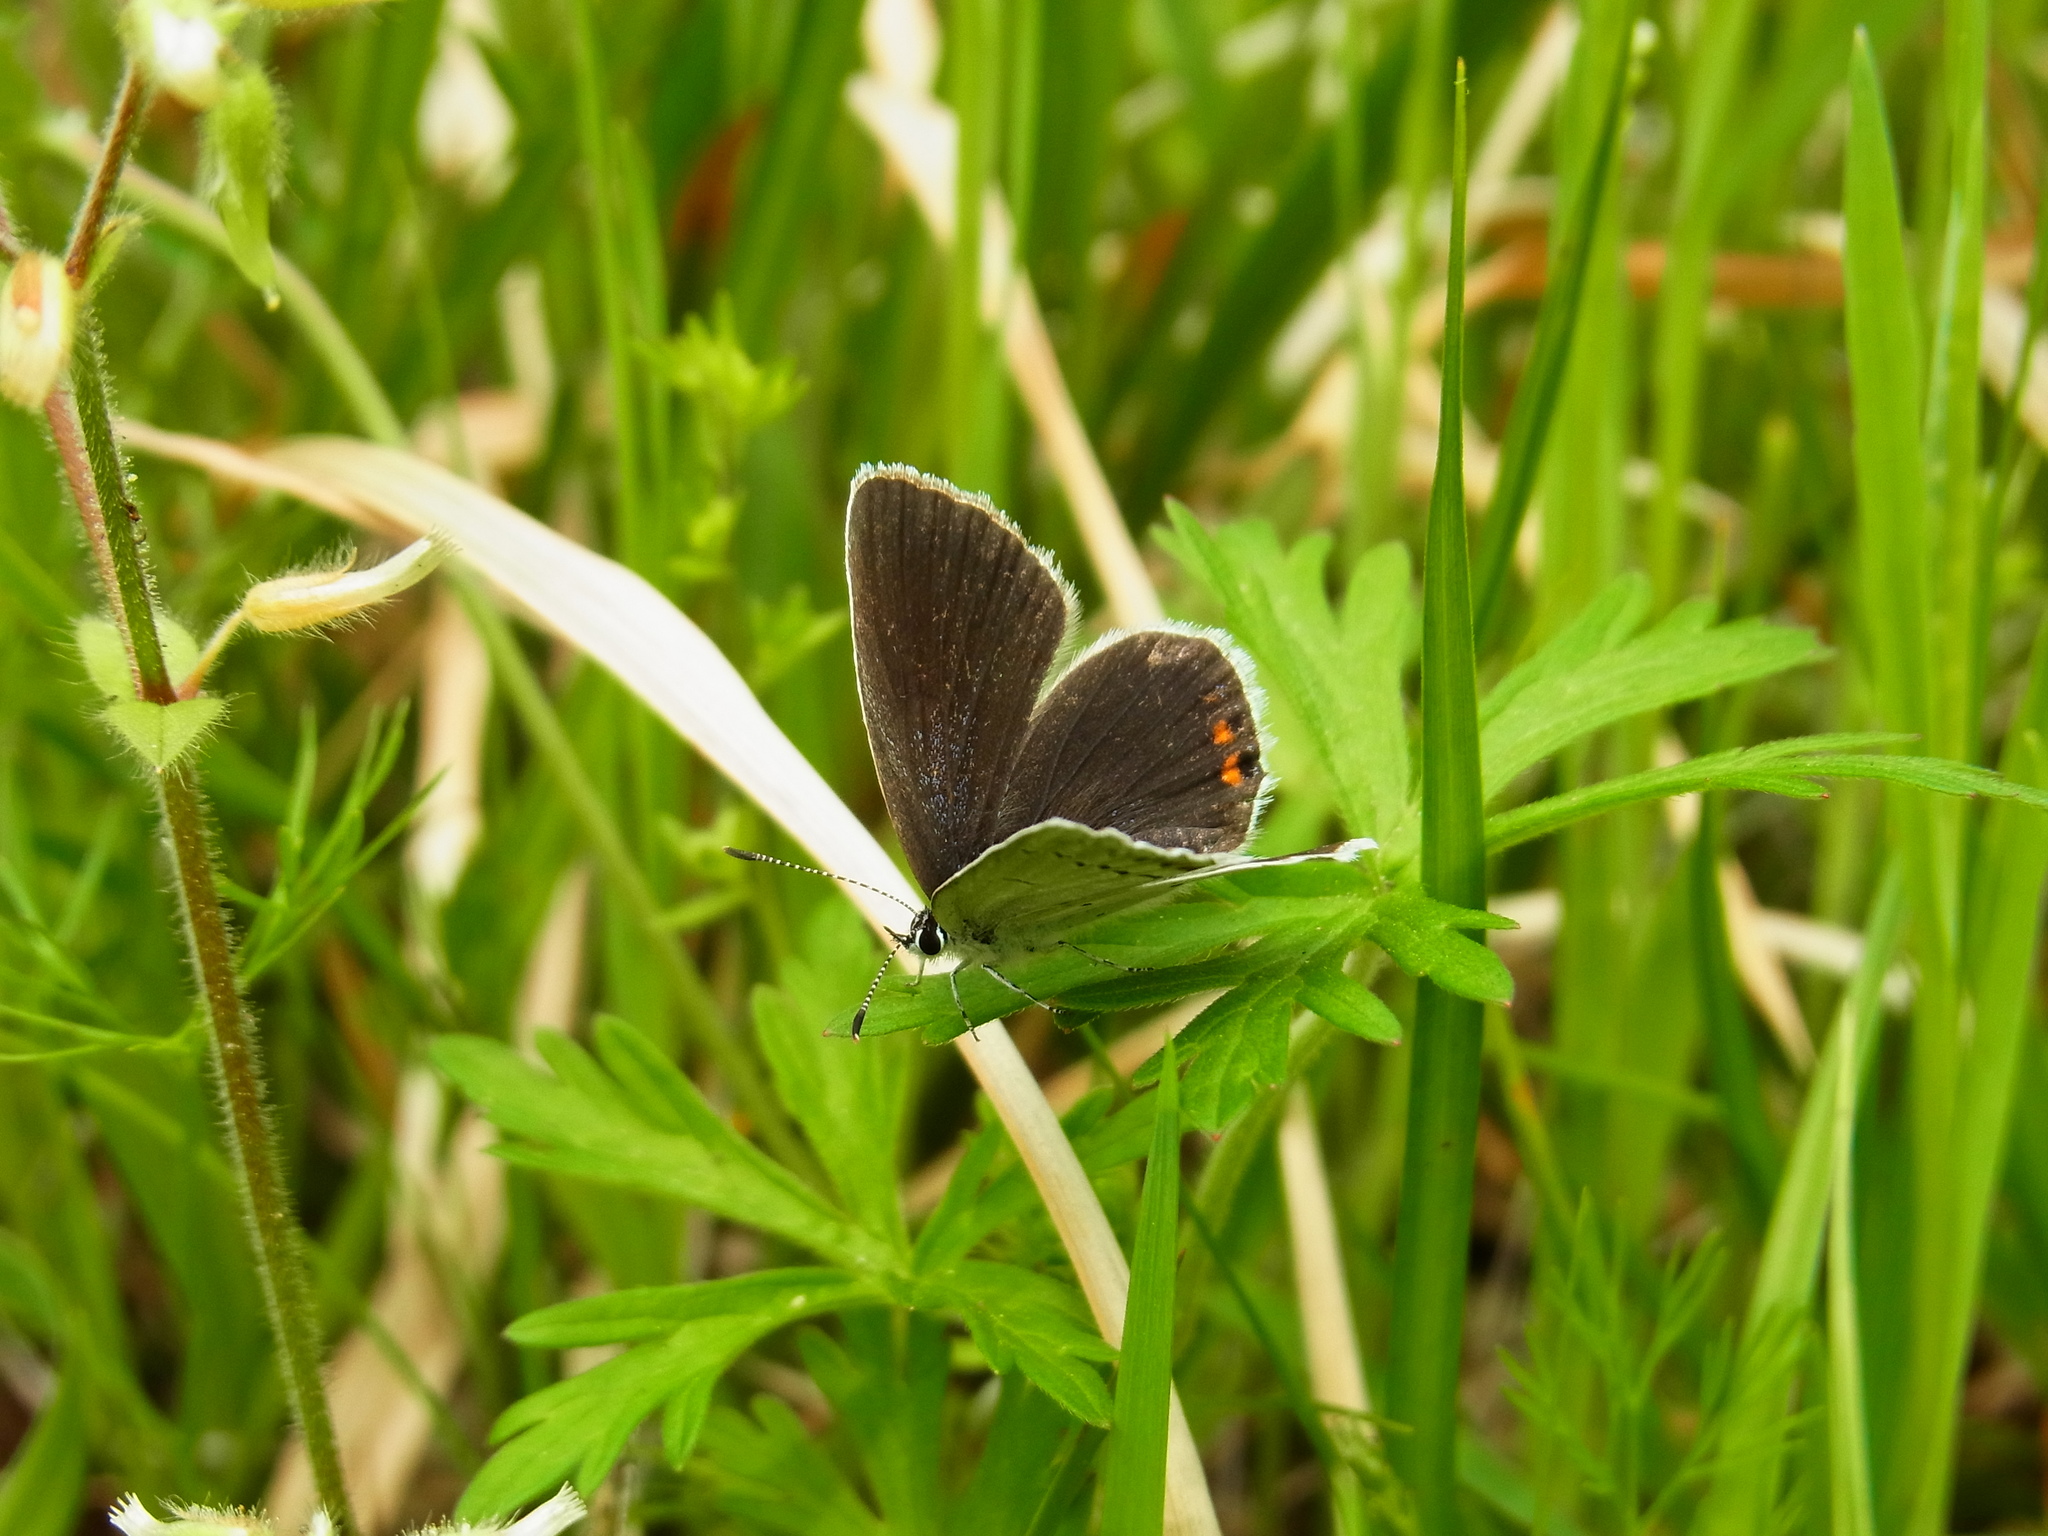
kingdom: Animalia
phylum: Arthropoda
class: Insecta
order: Lepidoptera
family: Lycaenidae
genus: Elkalyce
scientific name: Elkalyce argiades
